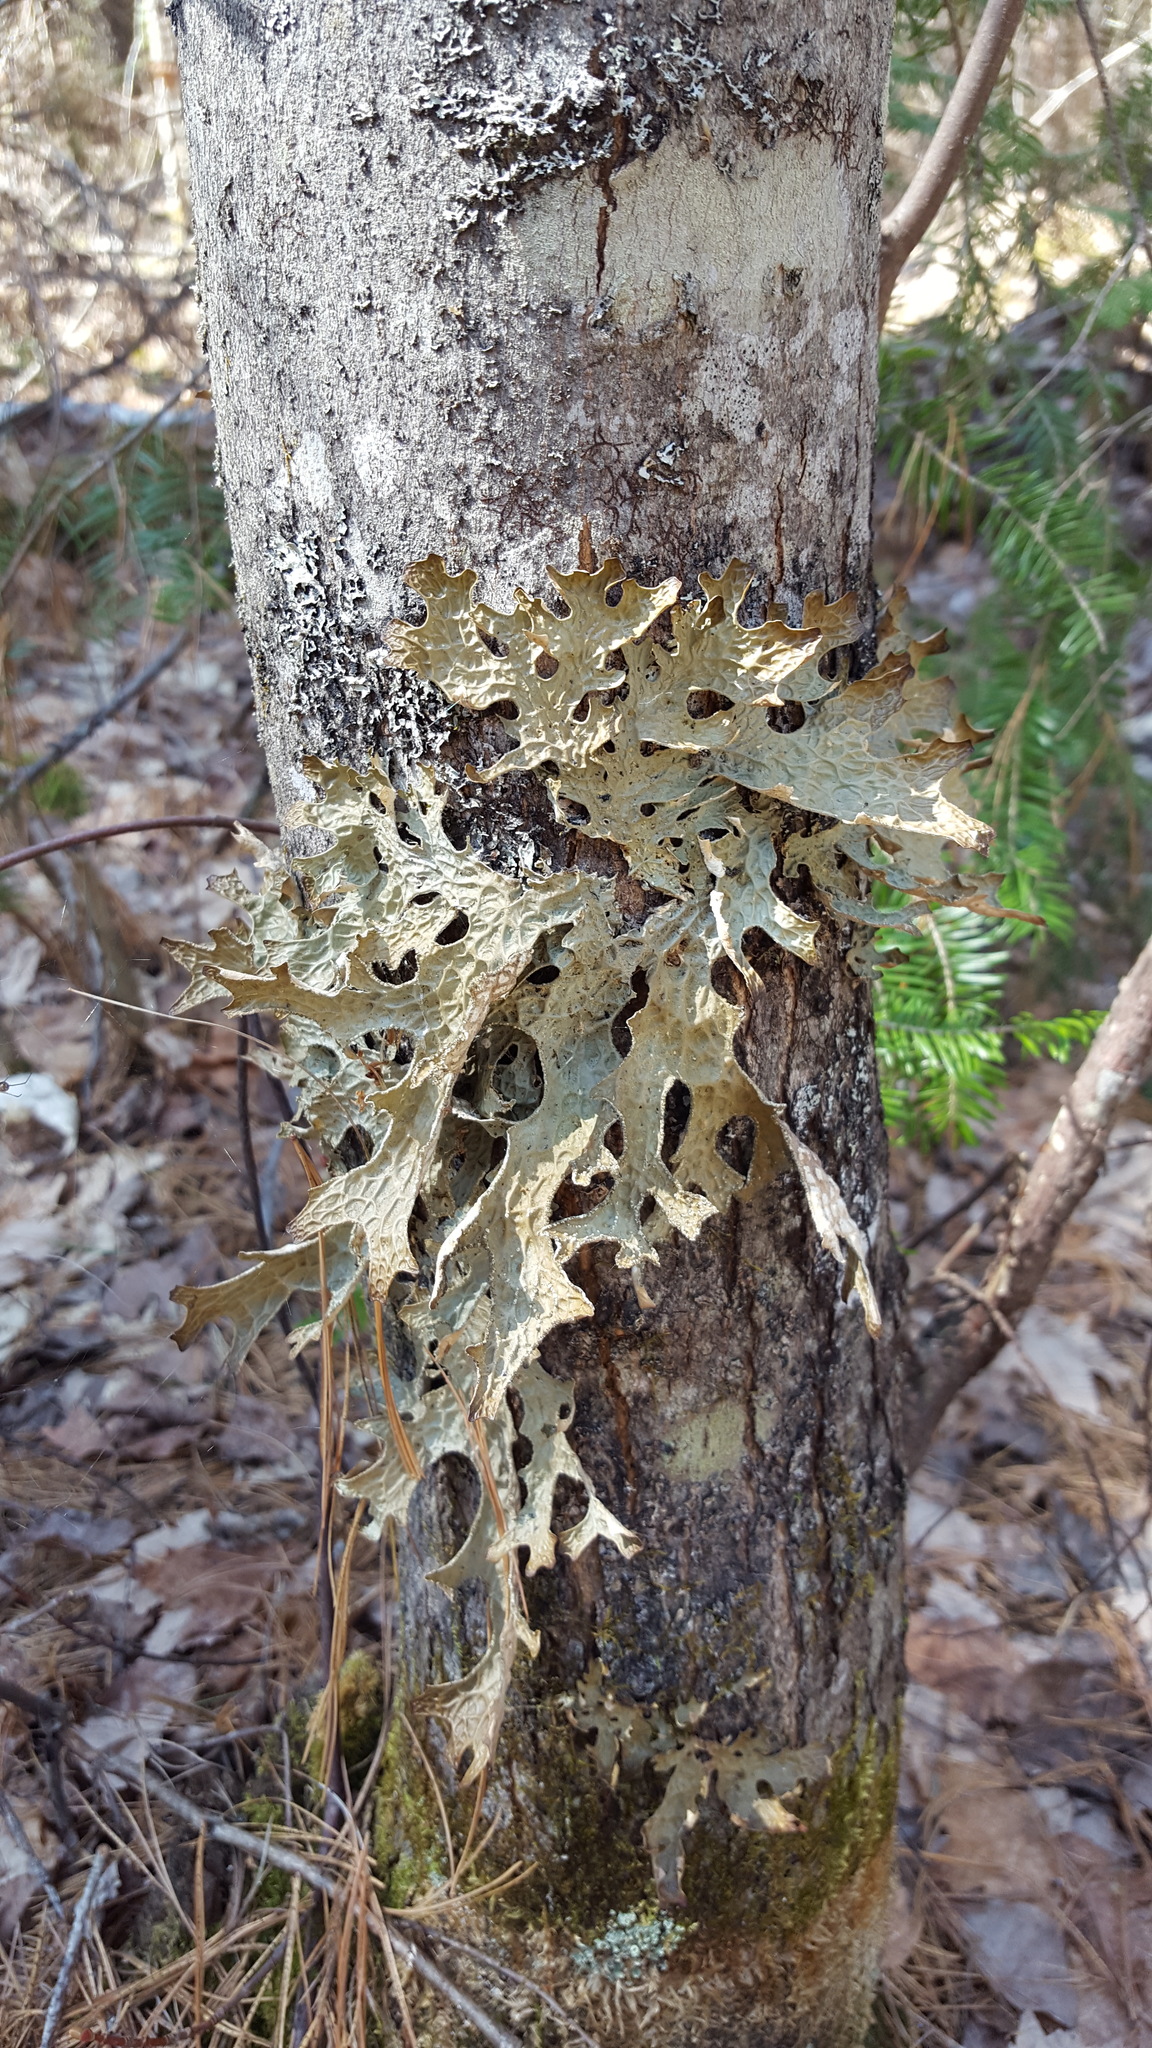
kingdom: Fungi
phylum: Ascomycota
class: Lecanoromycetes
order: Peltigerales
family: Lobariaceae
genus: Lobaria
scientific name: Lobaria pulmonaria
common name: Lungwort
